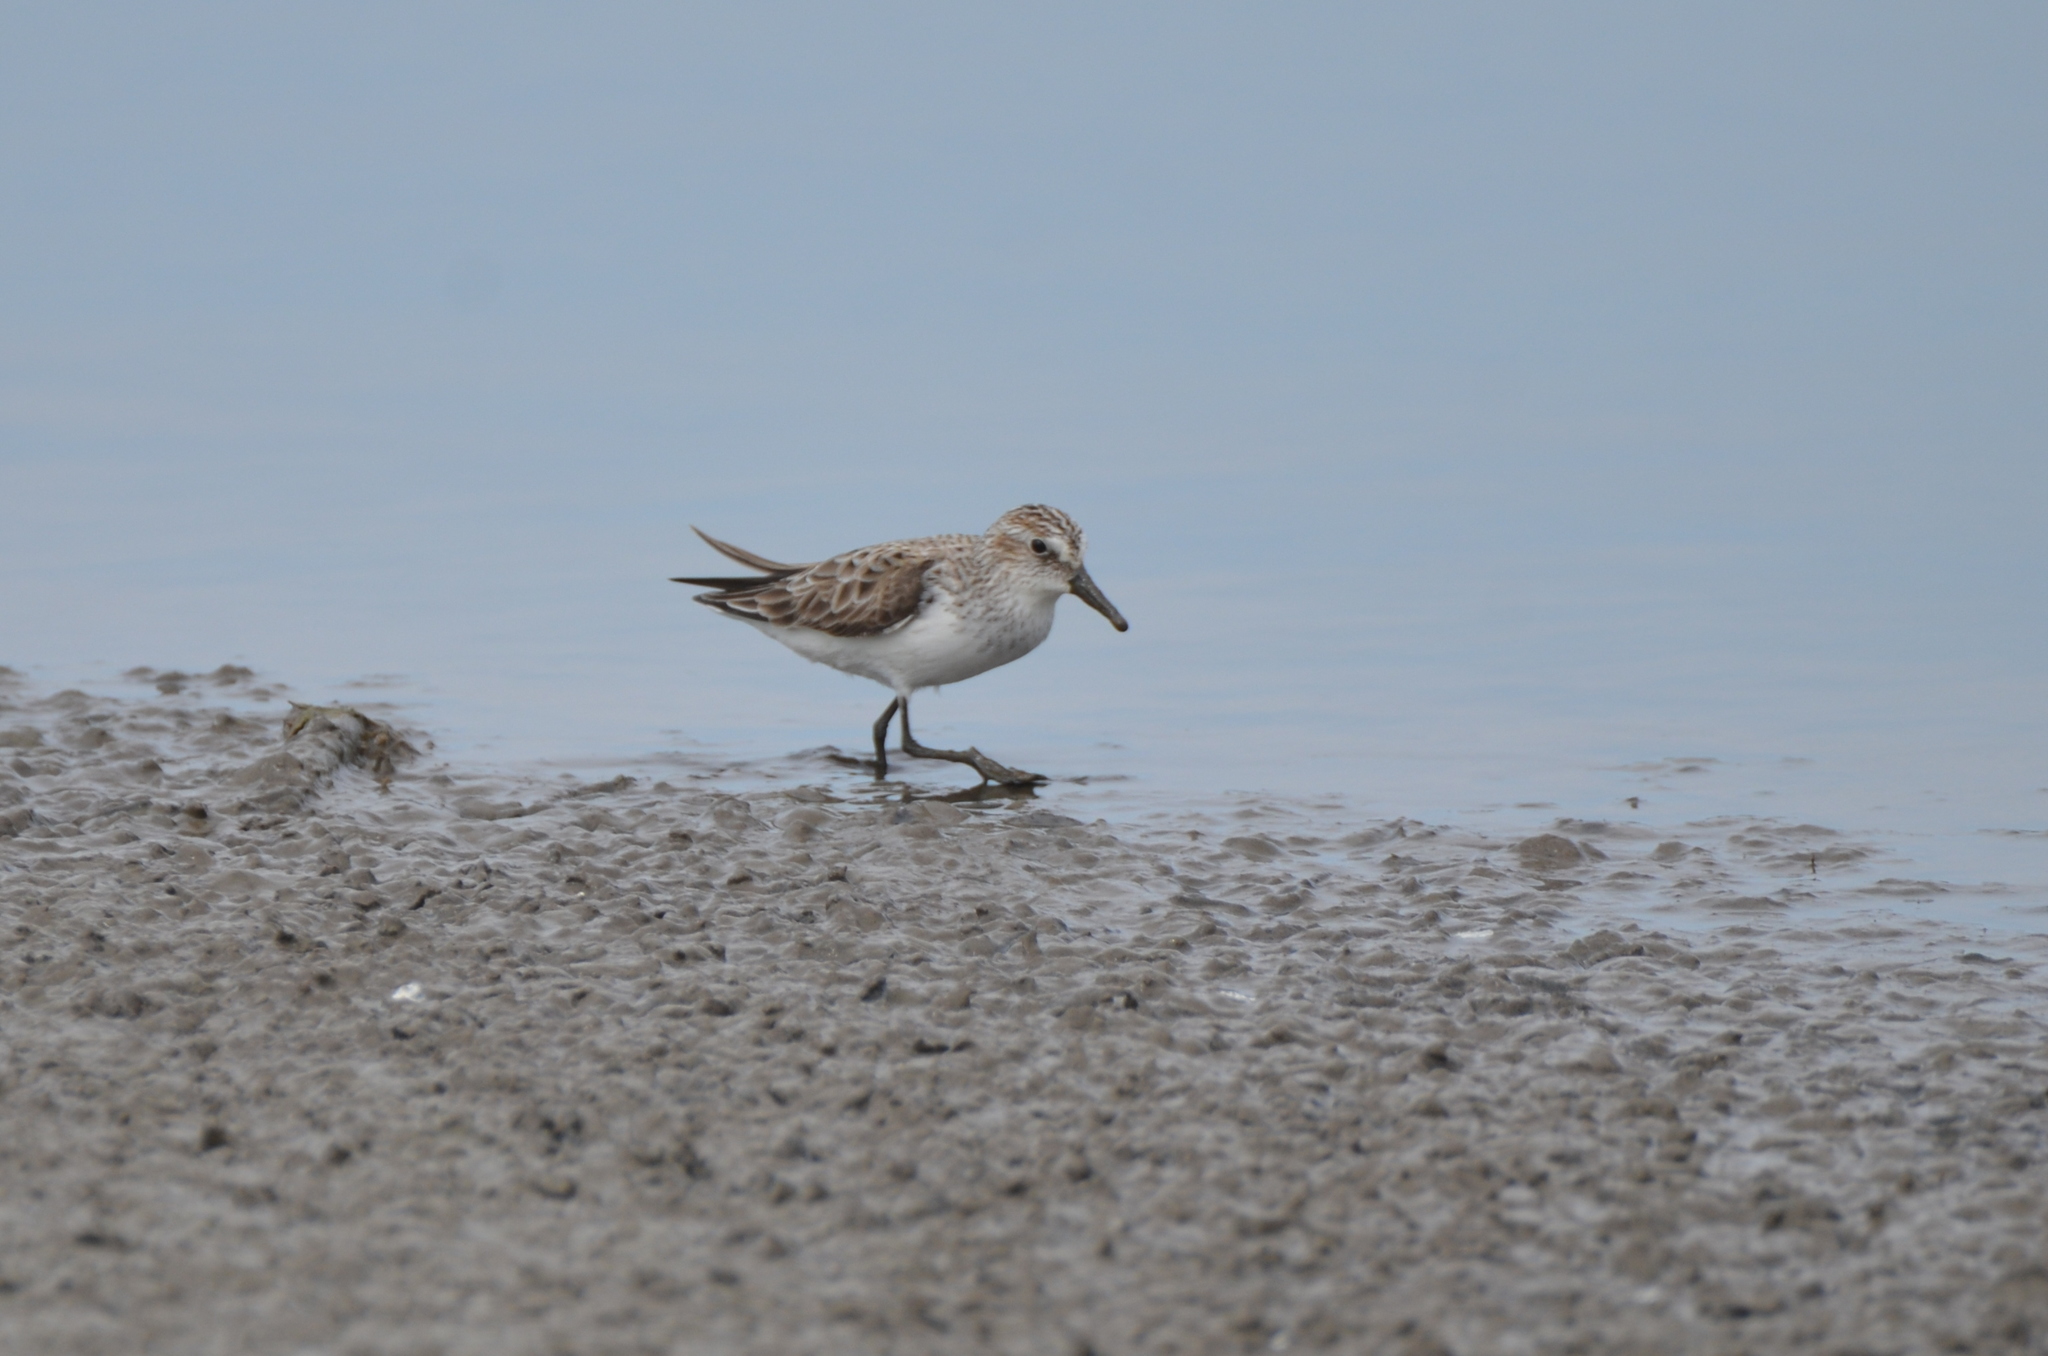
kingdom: Animalia
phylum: Chordata
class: Aves
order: Charadriiformes
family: Scolopacidae
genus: Calidris
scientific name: Calidris pusilla
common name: Semipalmated sandpiper
